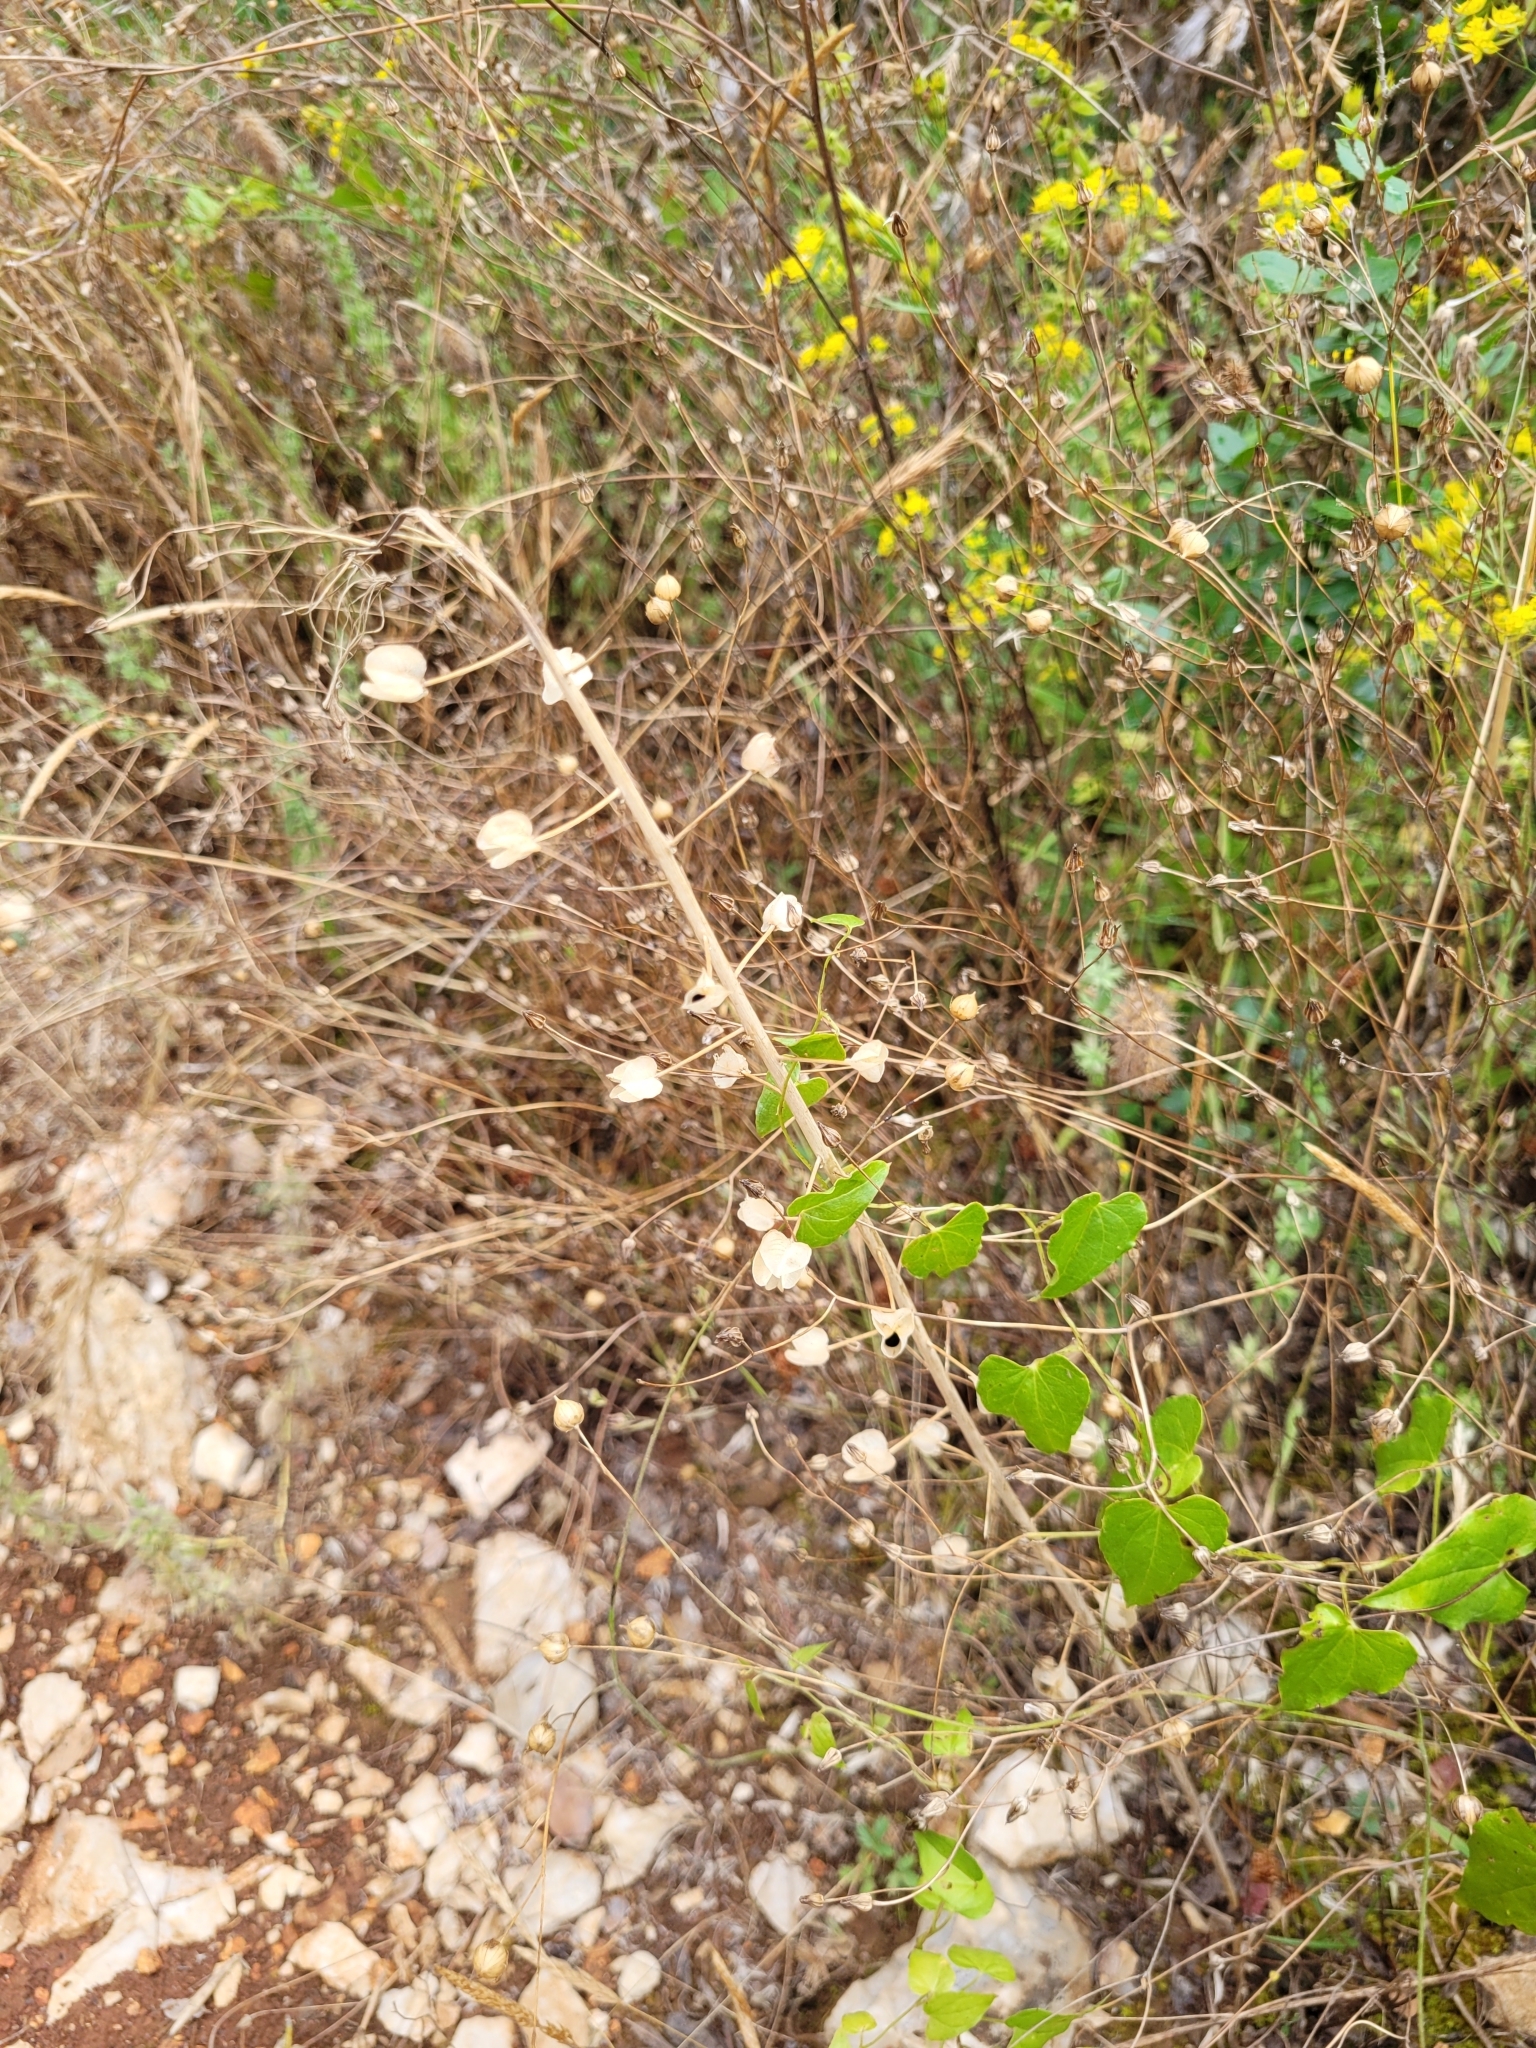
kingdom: Plantae
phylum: Tracheophyta
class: Liliopsida
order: Asparagales
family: Asparagaceae
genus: Muscari
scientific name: Muscari comosum
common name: Tassel hyacinth
